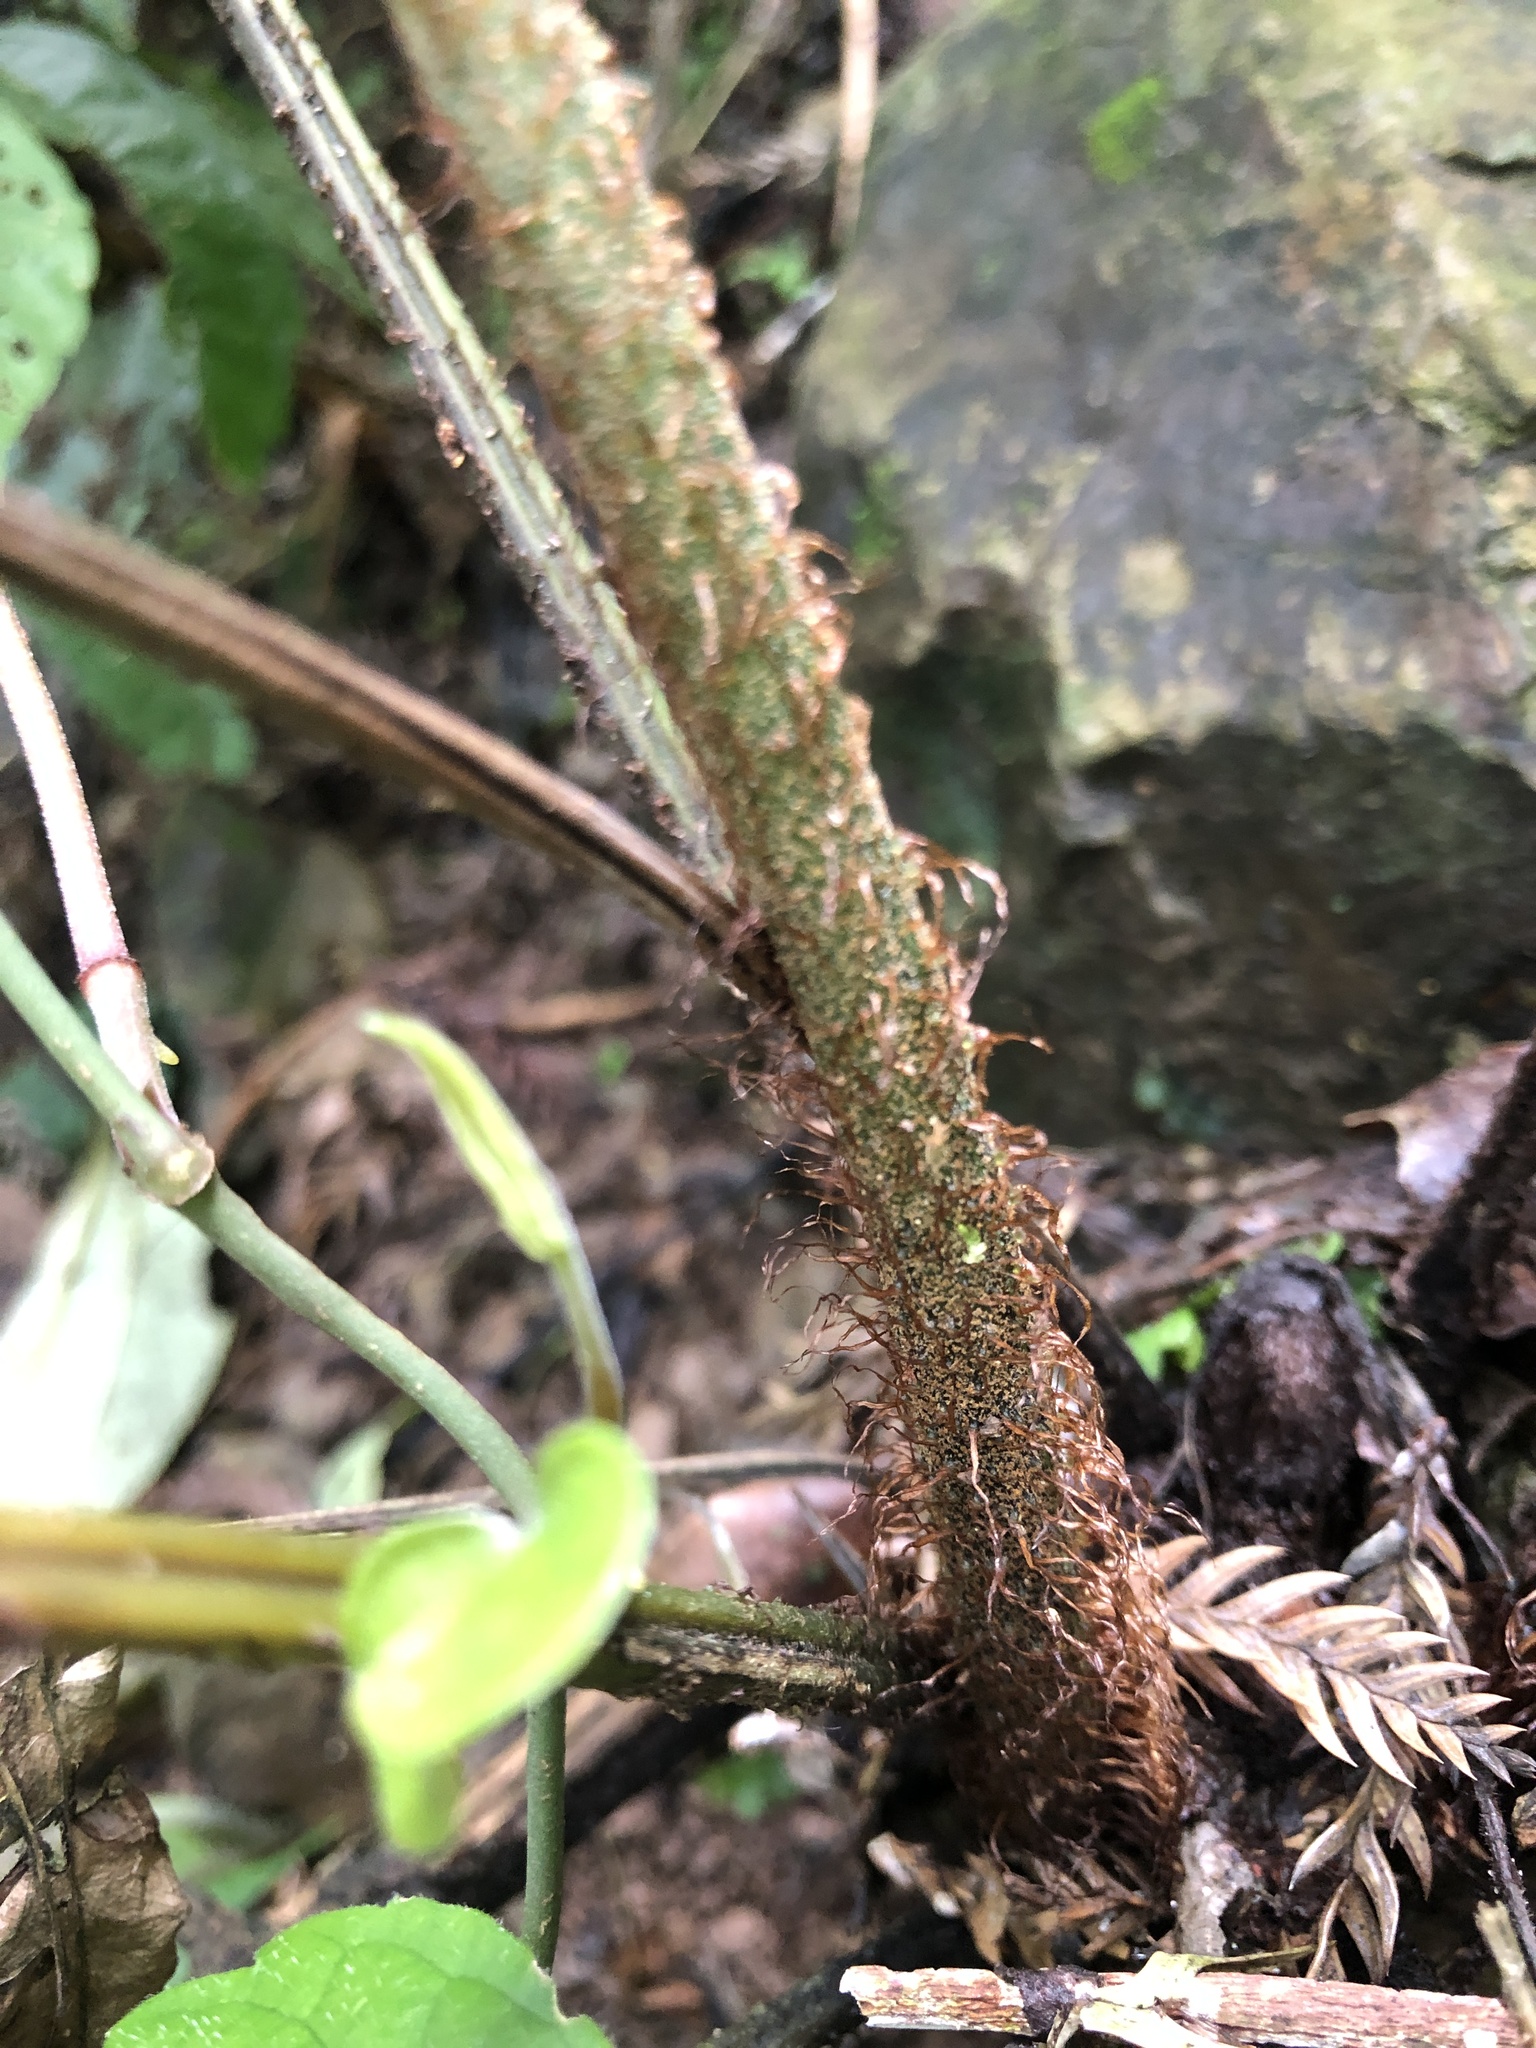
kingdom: Plantae
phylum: Tracheophyta
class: Polypodiopsida
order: Polypodiales
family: Athyriaceae
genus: Diplazium
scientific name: Diplazium dilatatum
